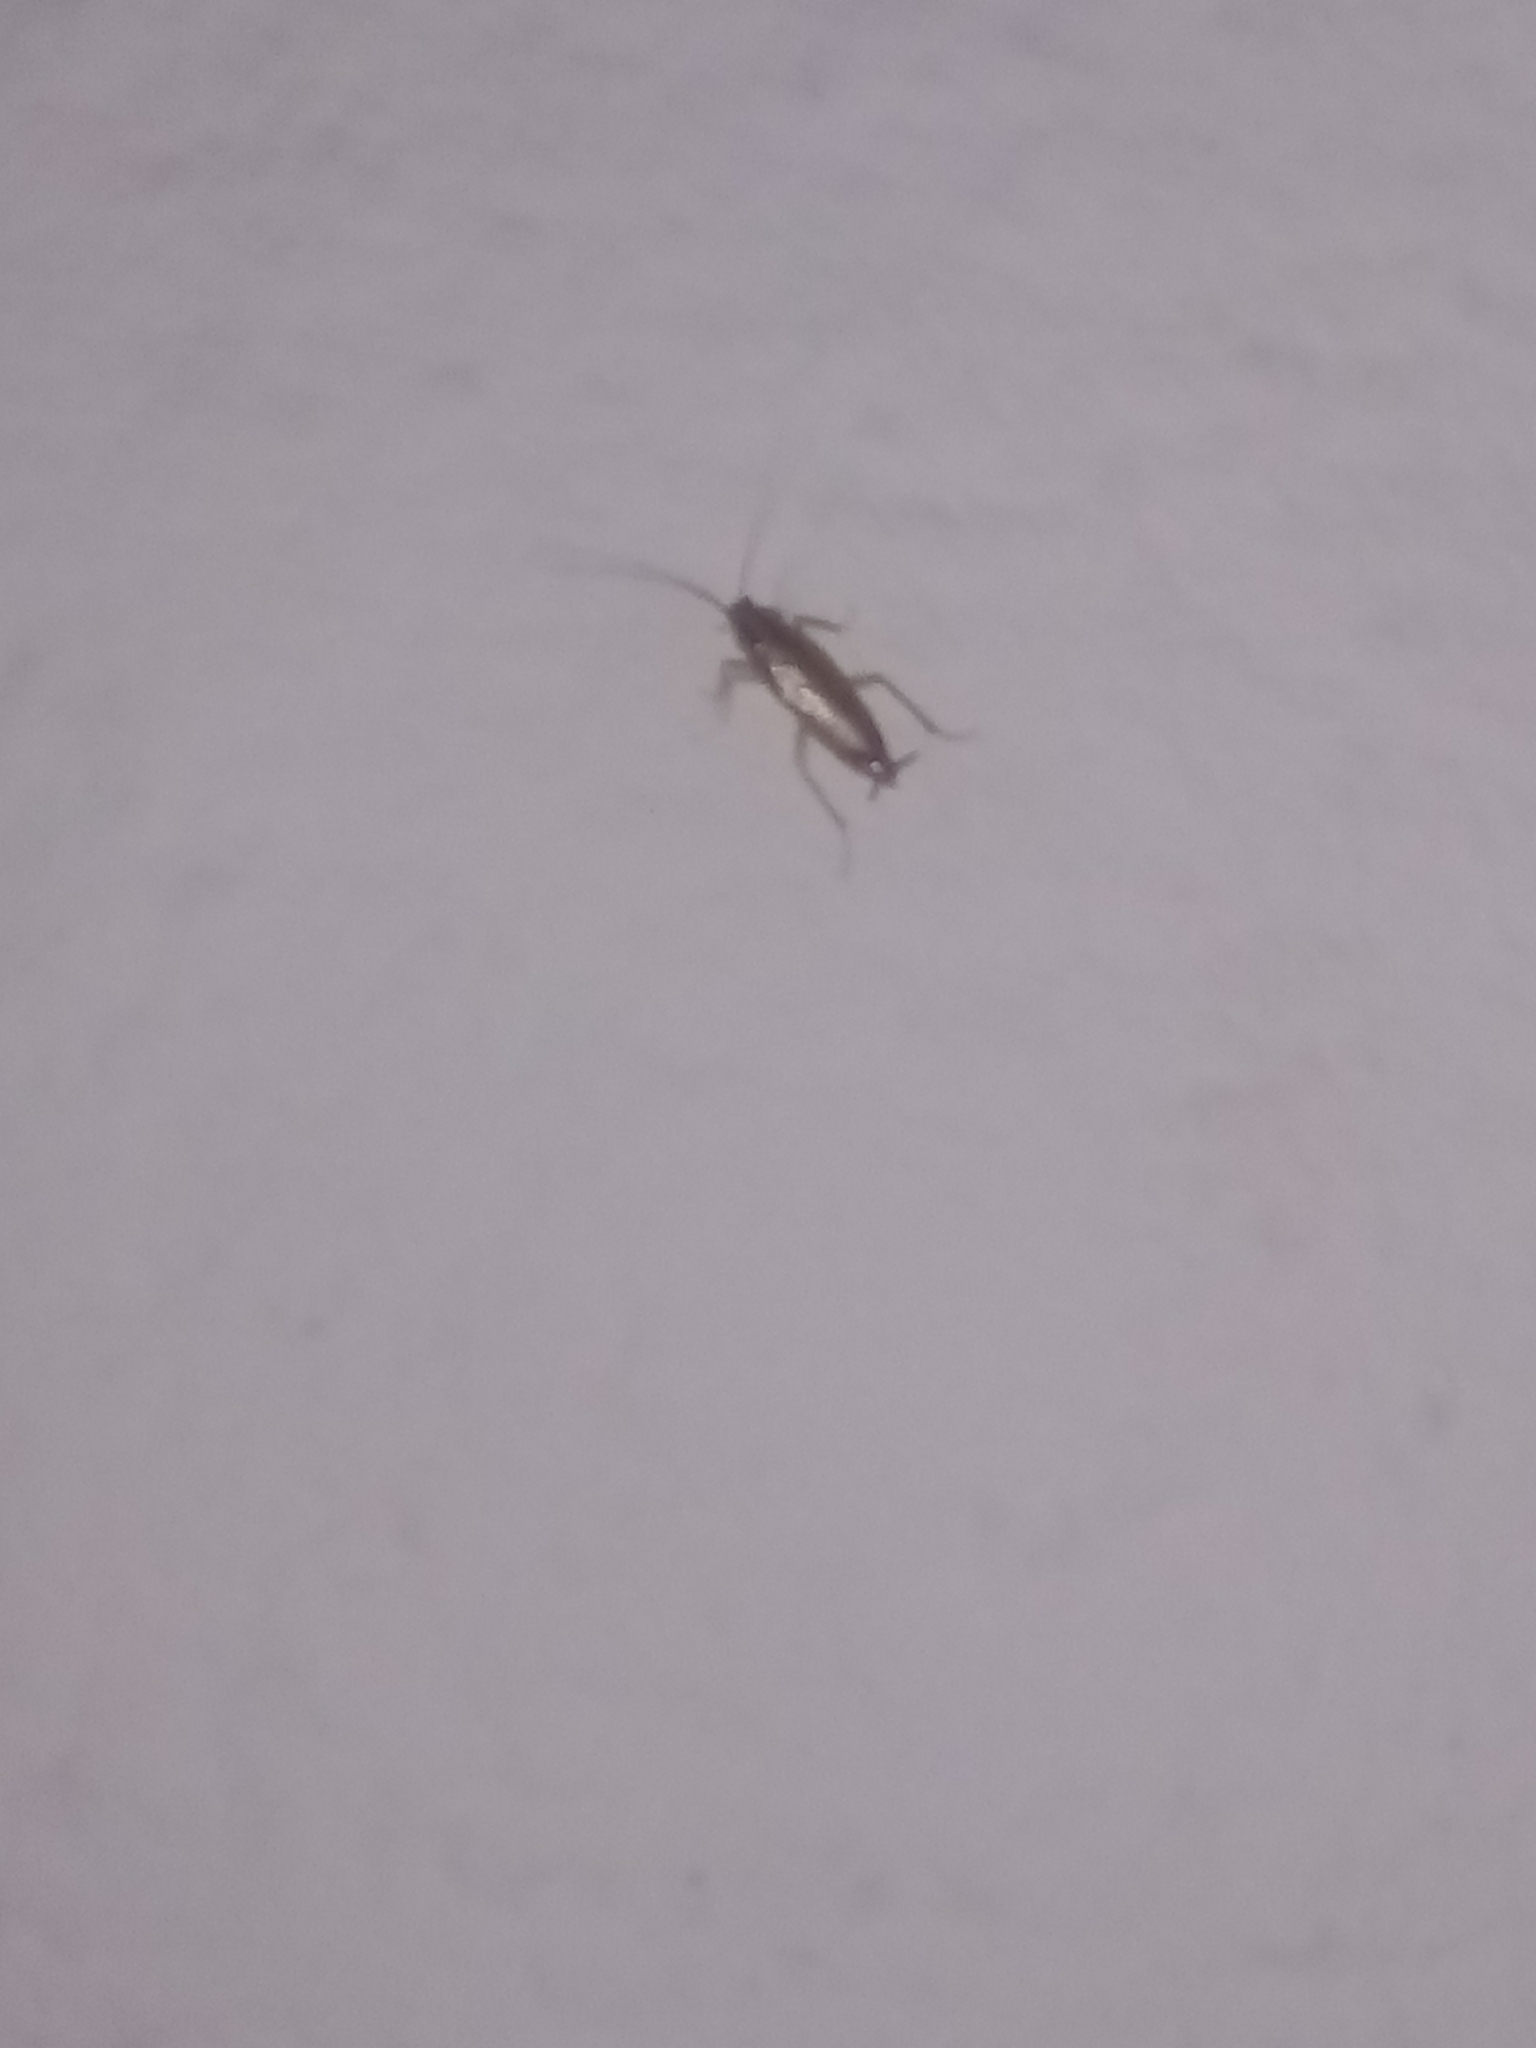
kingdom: Animalia
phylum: Arthropoda
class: Insecta
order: Blattodea
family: Ectobiidae
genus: Blattella
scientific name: Blattella germanica
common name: German cockroach
